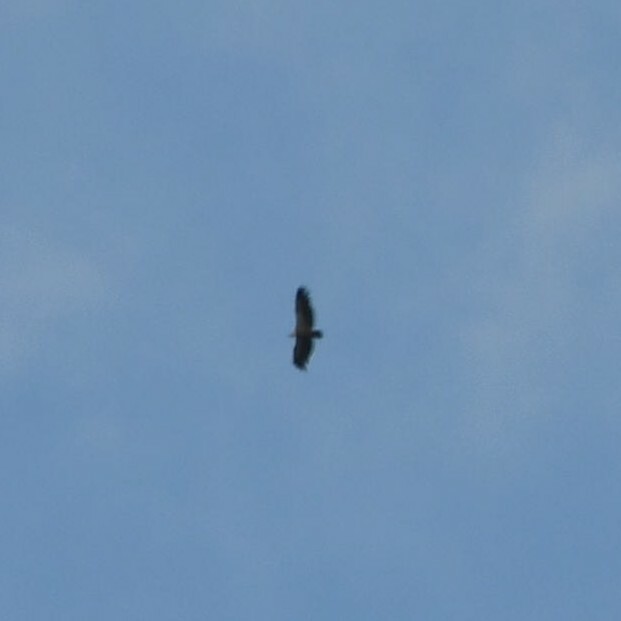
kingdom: Animalia
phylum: Chordata
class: Aves
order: Accipitriformes
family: Accipitridae
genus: Gyps
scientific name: Gyps fulvus
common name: Griffon vulture
